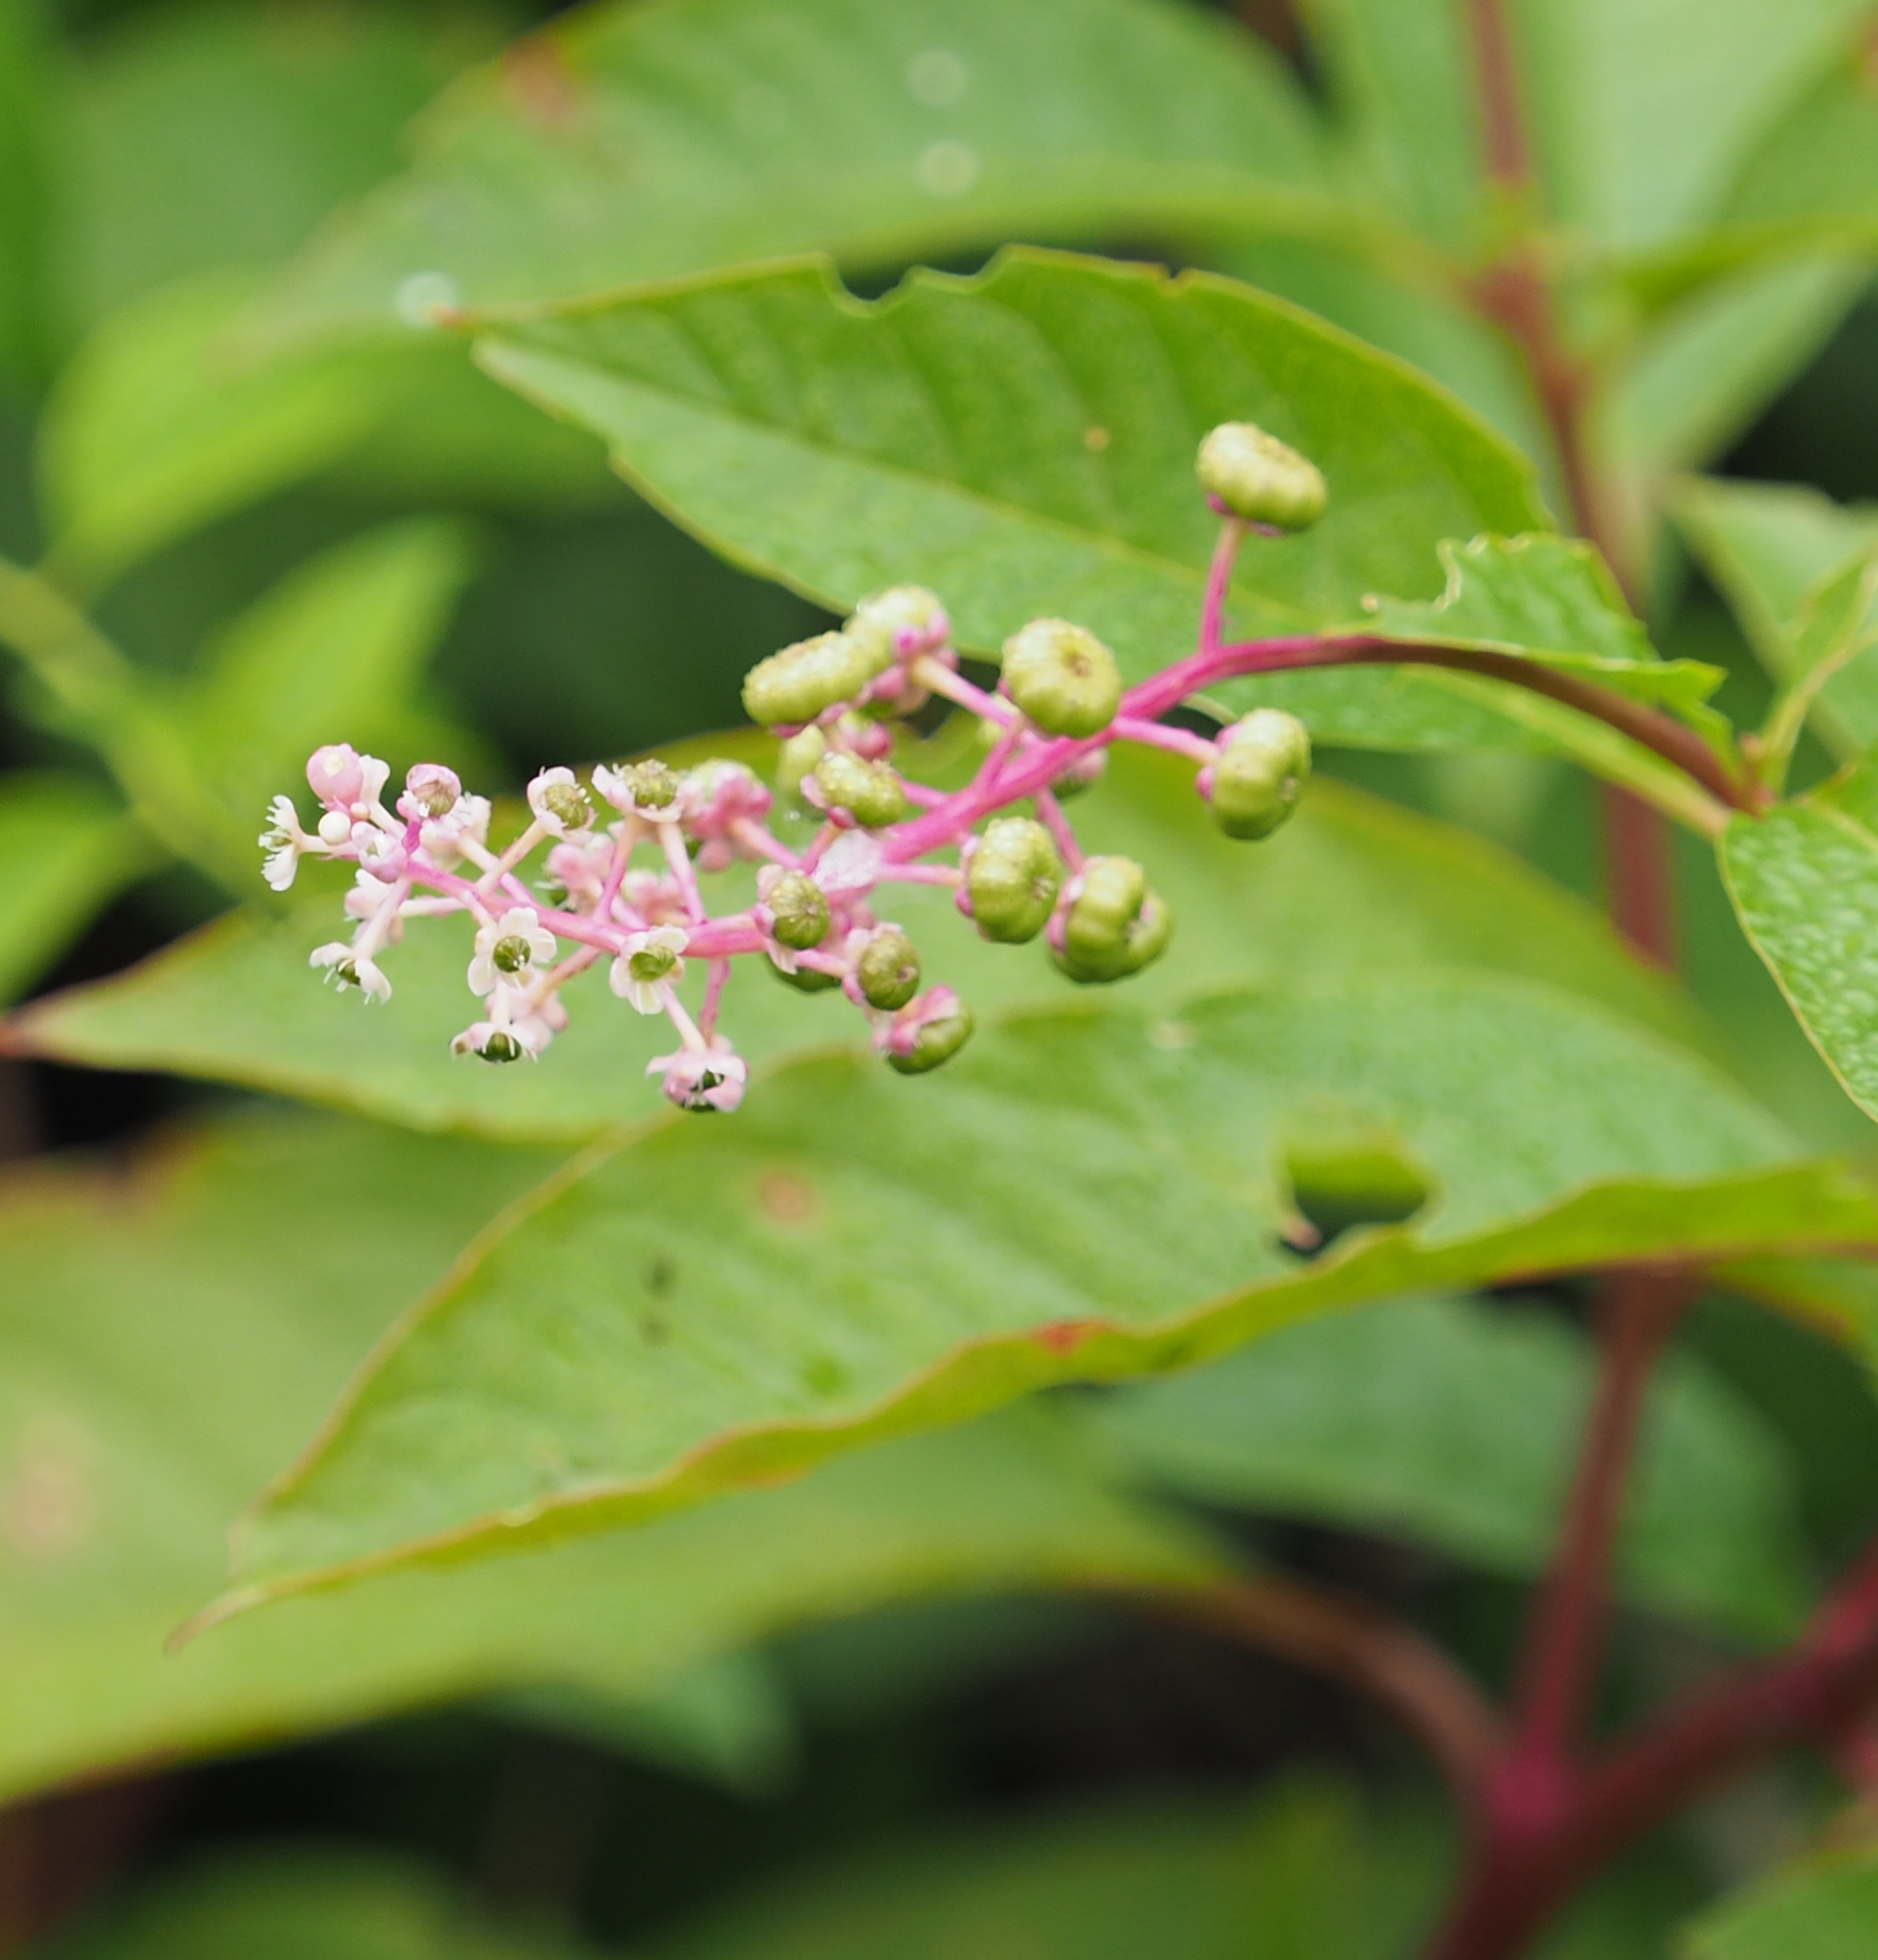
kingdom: Plantae
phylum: Tracheophyta
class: Magnoliopsida
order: Caryophyllales
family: Phytolaccaceae
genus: Phytolacca
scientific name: Phytolacca americana
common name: American pokeweed
